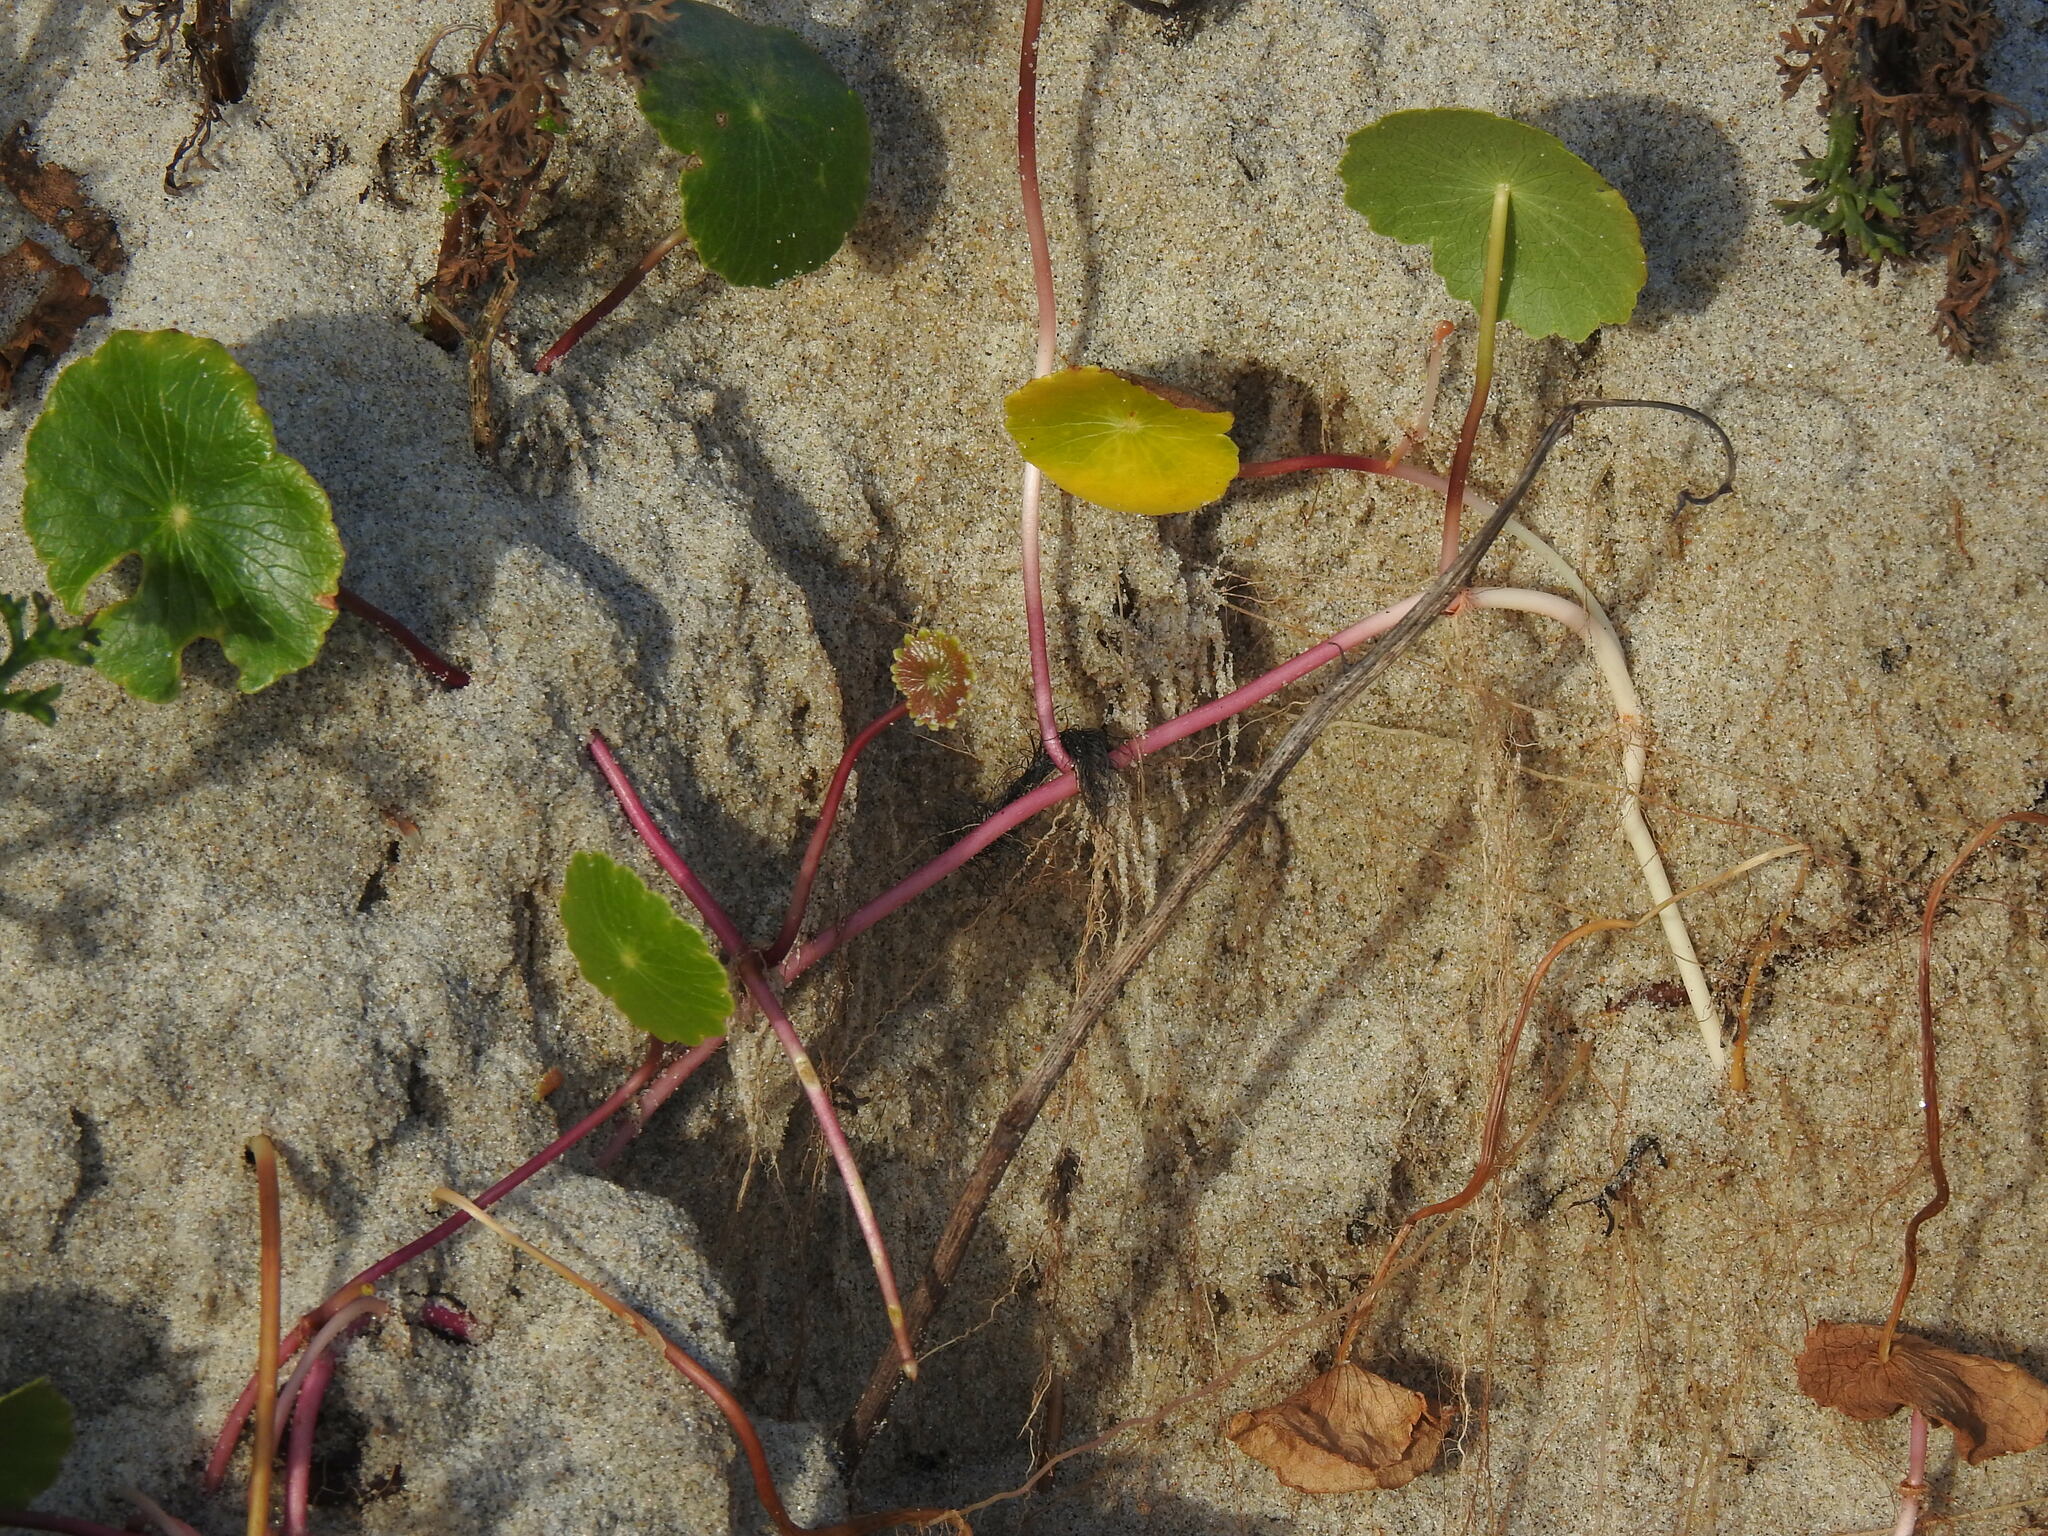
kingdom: Plantae
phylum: Tracheophyta
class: Magnoliopsida
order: Apiales
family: Araliaceae
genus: Hydrocotyle
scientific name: Hydrocotyle bonariensis
